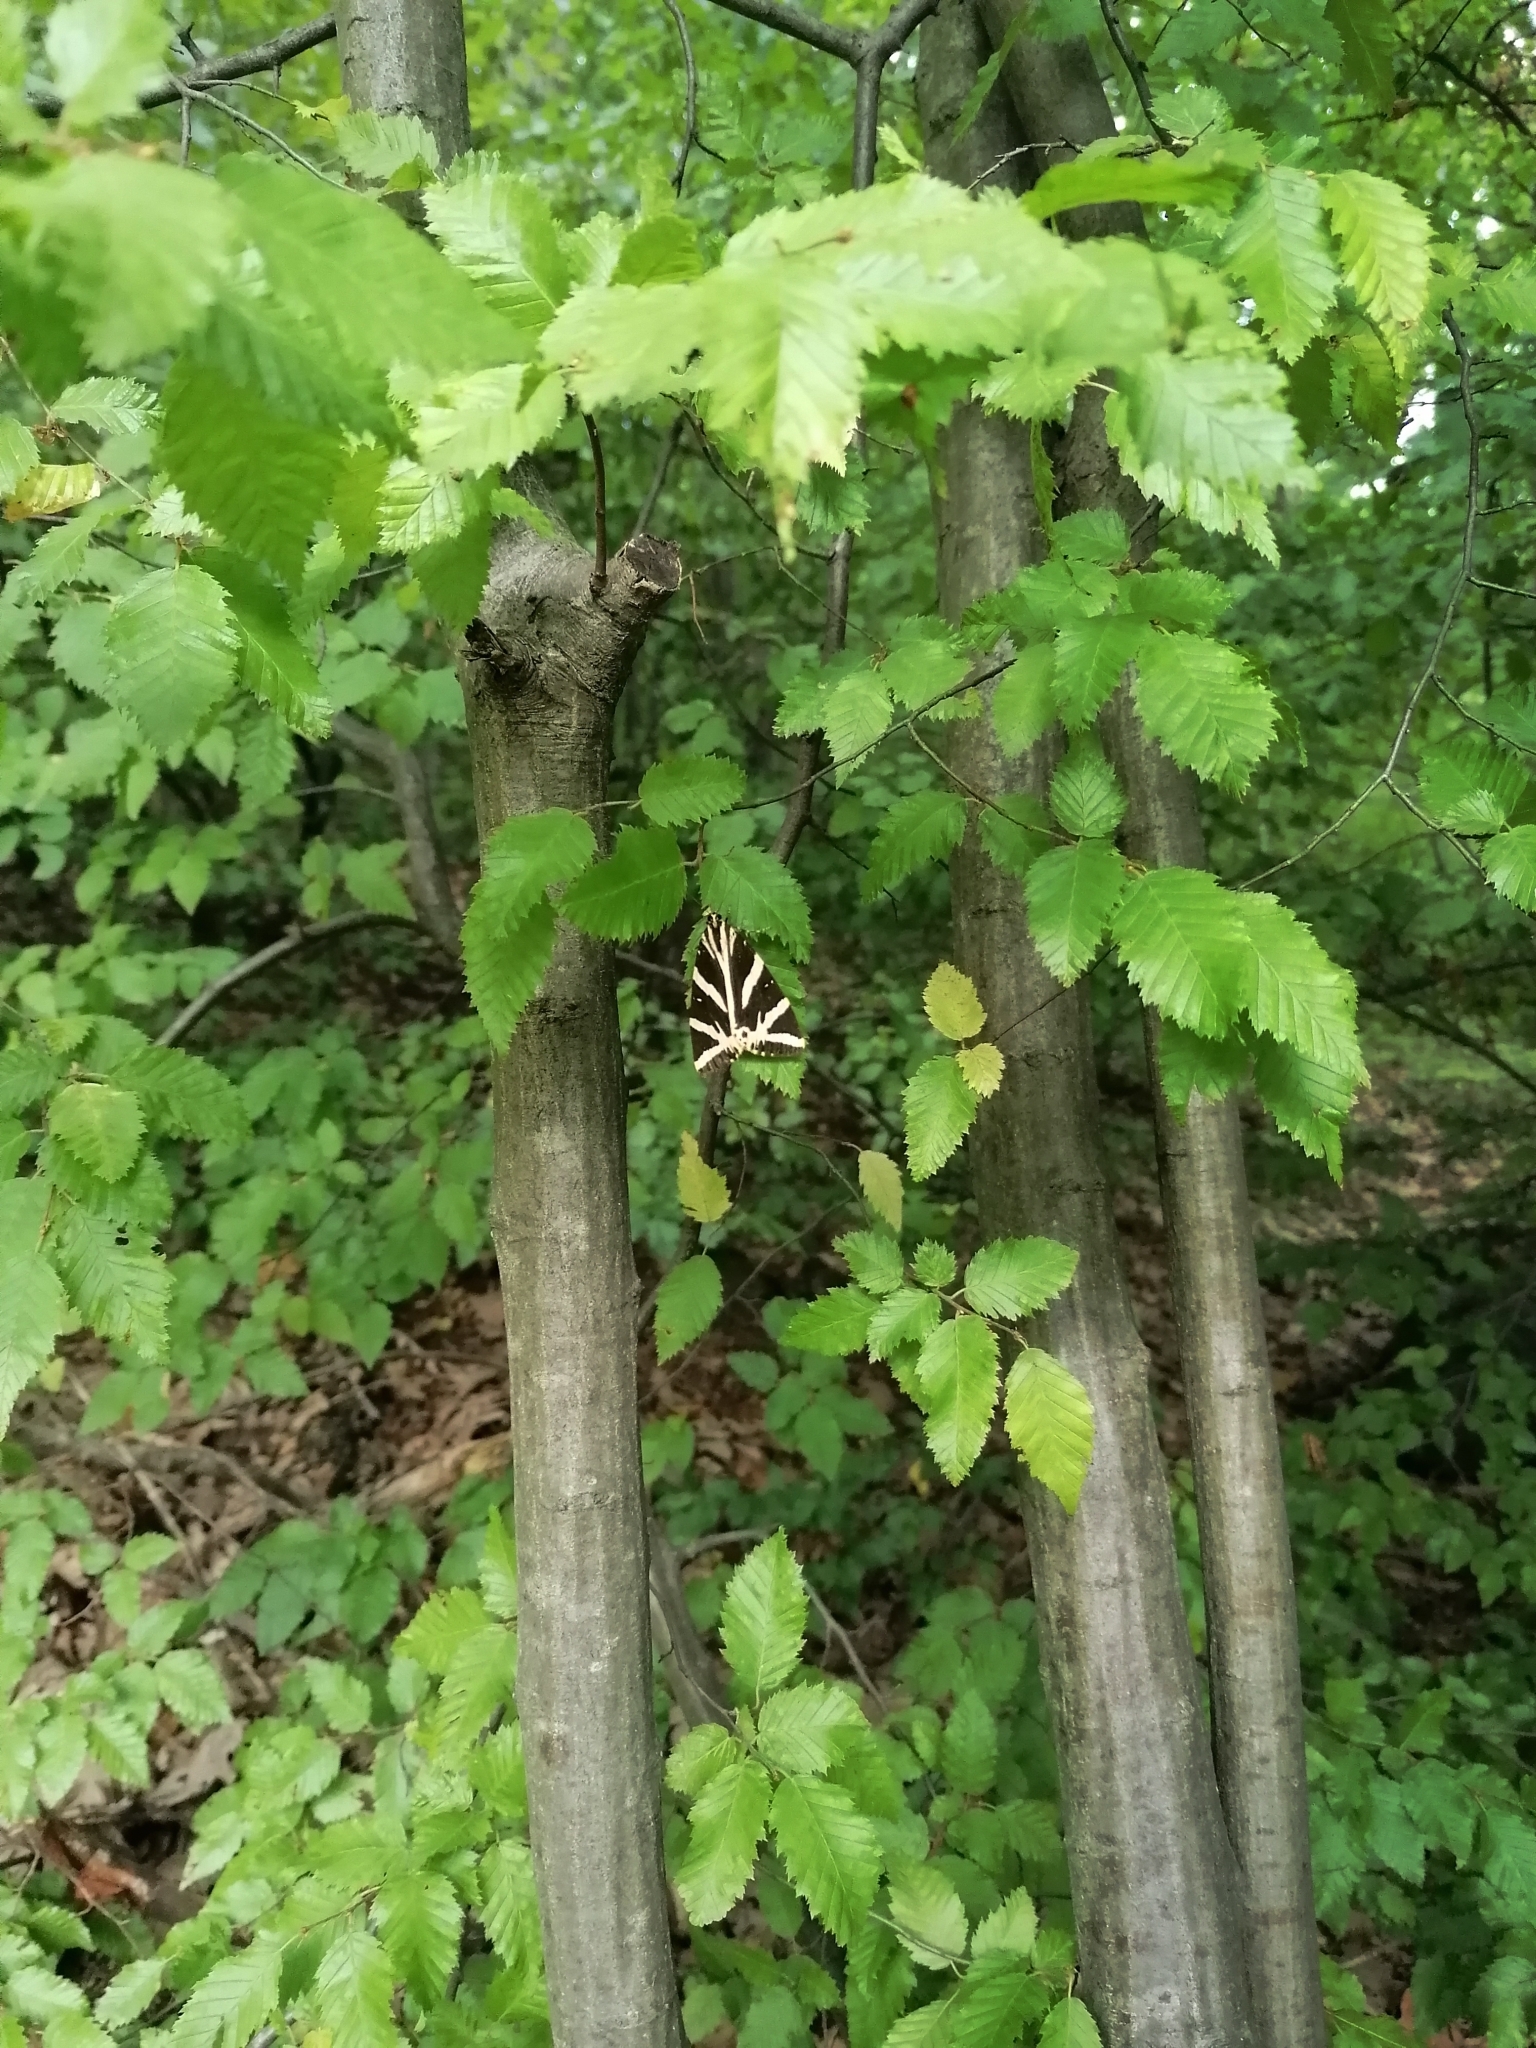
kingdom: Animalia
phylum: Arthropoda
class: Insecta
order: Lepidoptera
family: Erebidae
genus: Euplagia
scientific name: Euplagia quadripunctaria
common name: Jersey tiger
